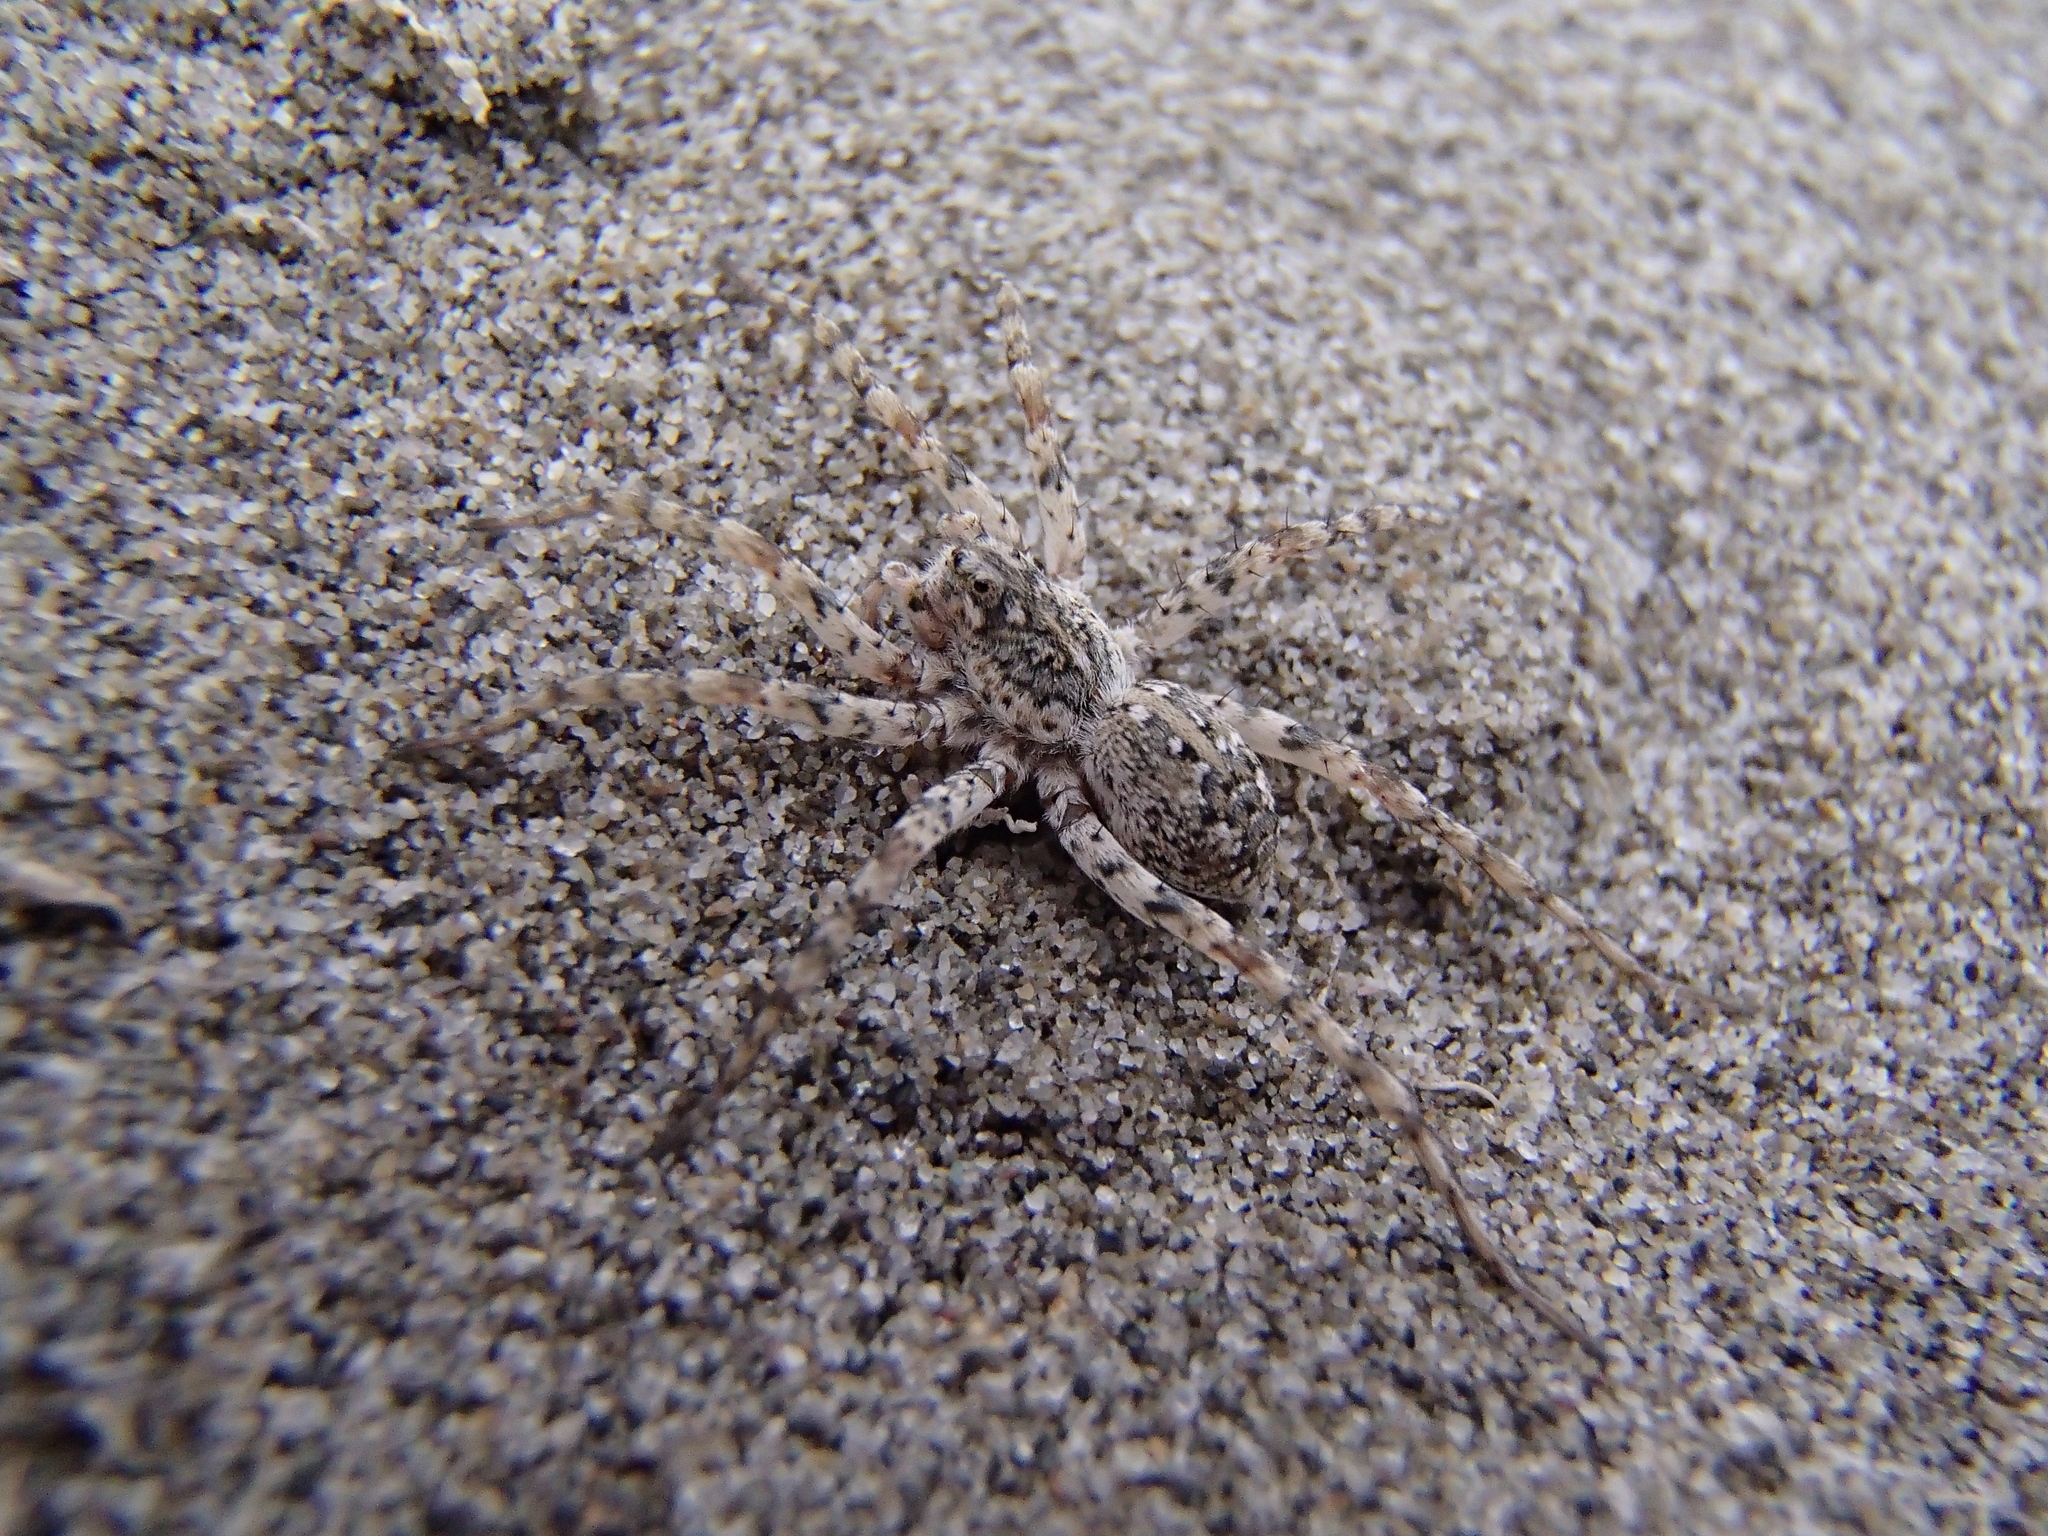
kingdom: Animalia
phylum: Arthropoda
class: Arachnida
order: Araneae
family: Lycosidae
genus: Anoteropsis
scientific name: Anoteropsis litoralis
